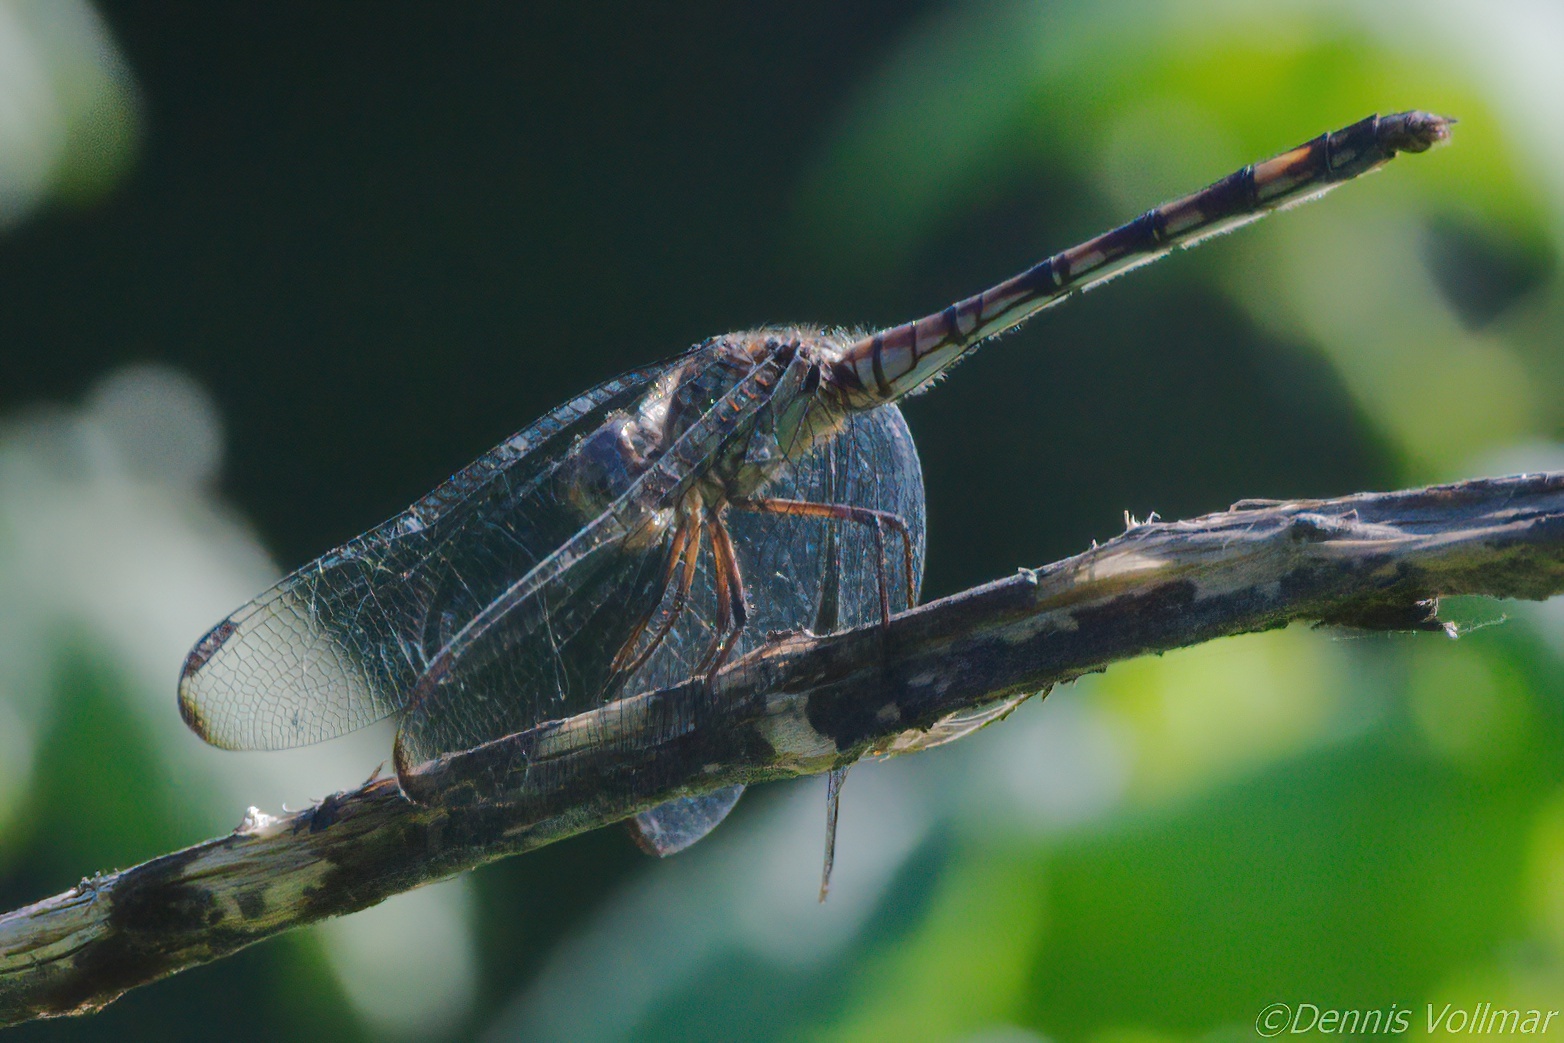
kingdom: Animalia
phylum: Arthropoda
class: Insecta
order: Odonata
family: Libellulidae
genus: Dythemis
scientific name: Dythemis nigrescens
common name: Black setwing
